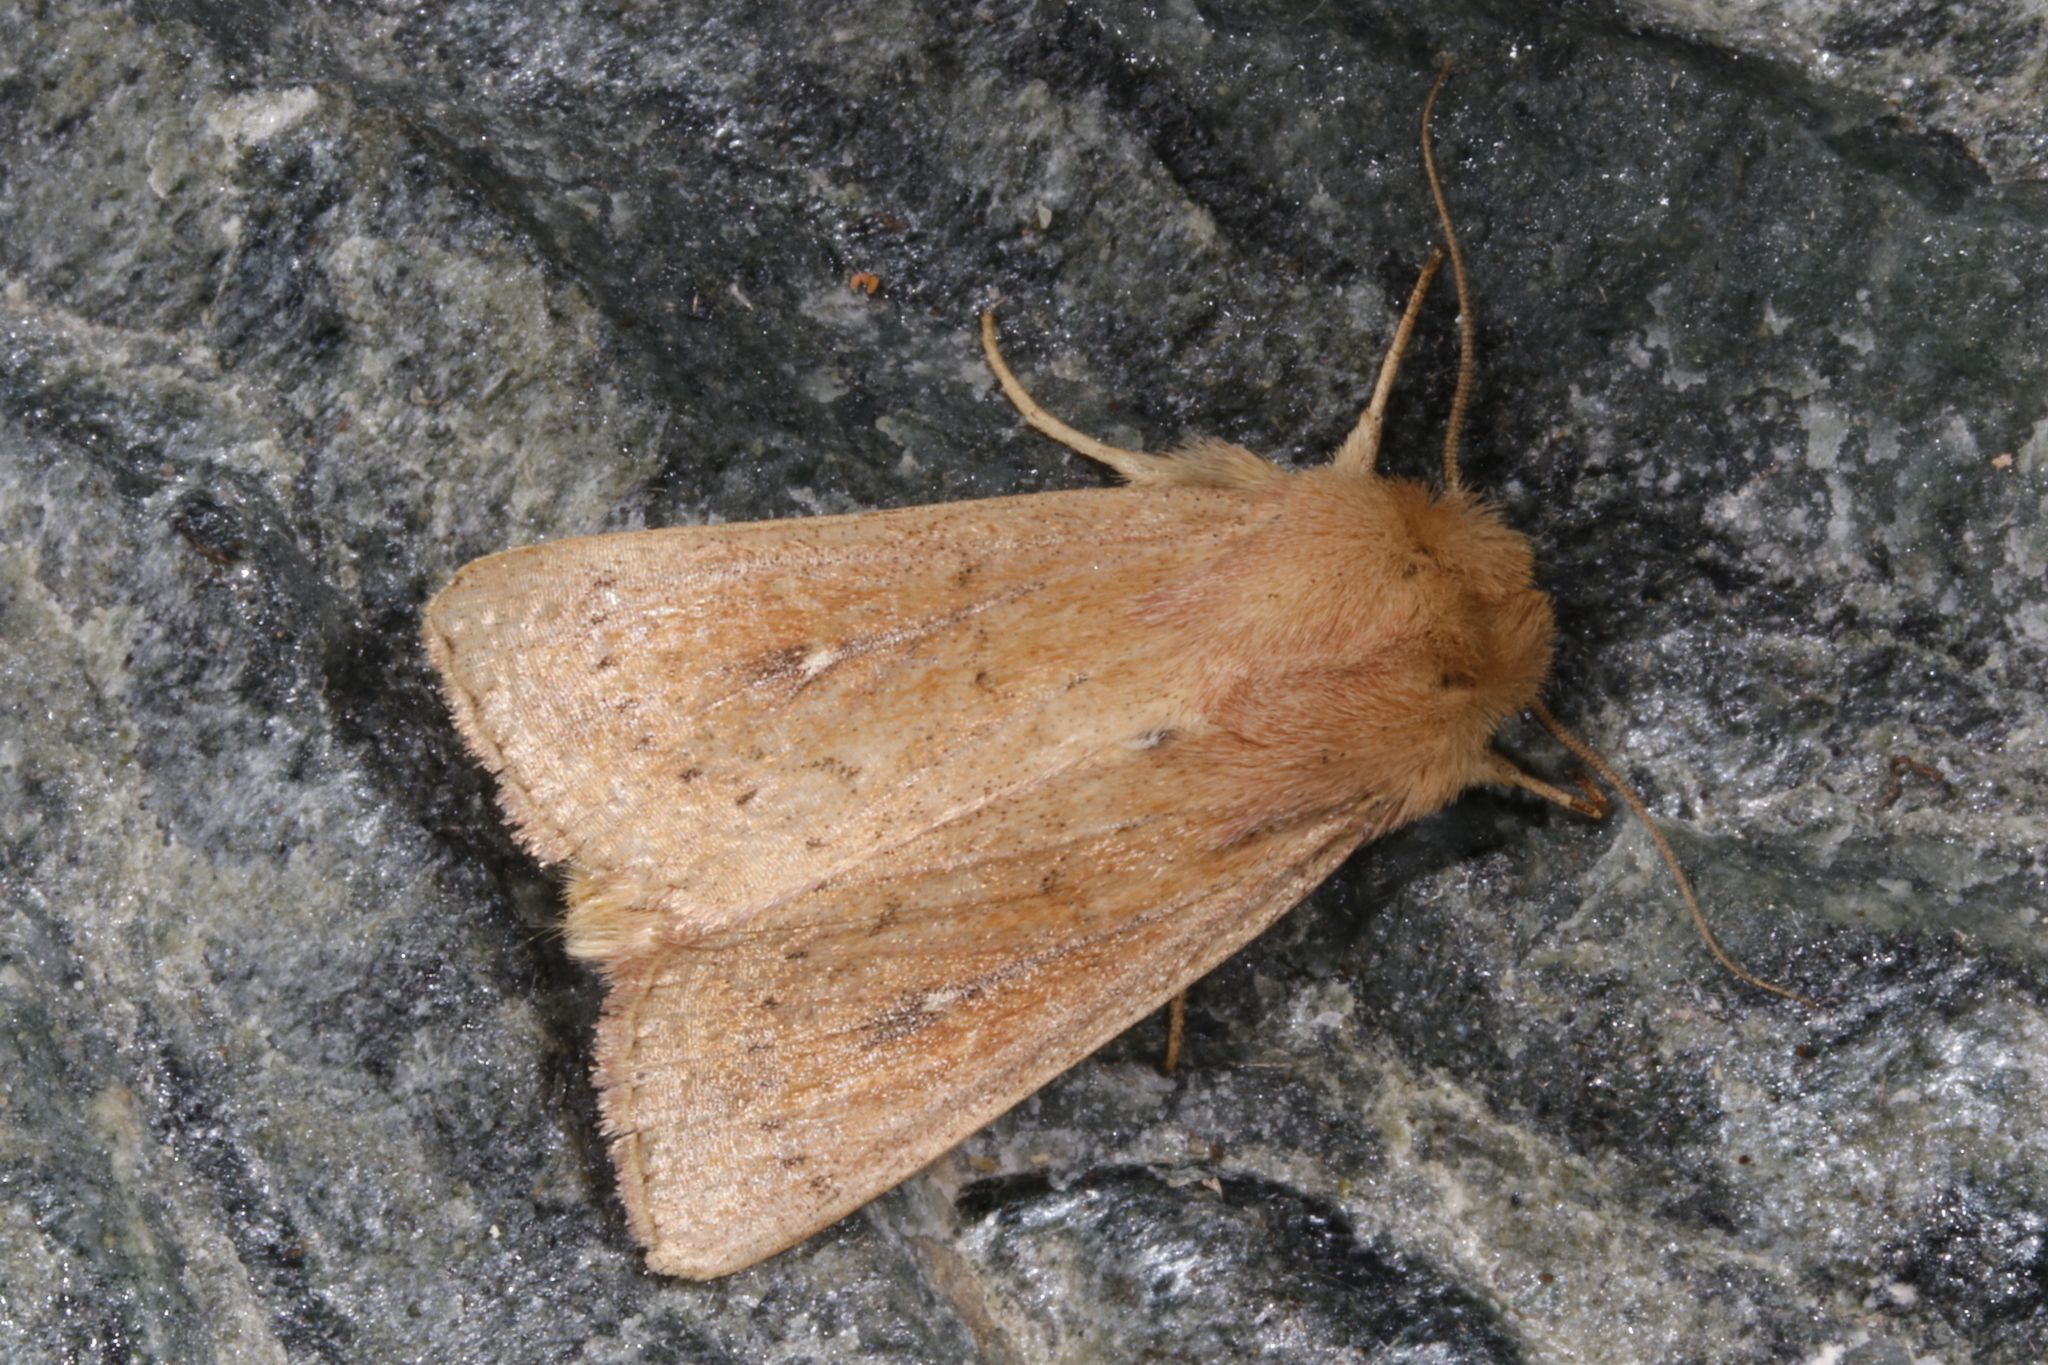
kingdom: Animalia
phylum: Arthropoda
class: Insecta
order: Lepidoptera
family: Noctuidae
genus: Mythimna
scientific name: Mythimna ferrago
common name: Clay
